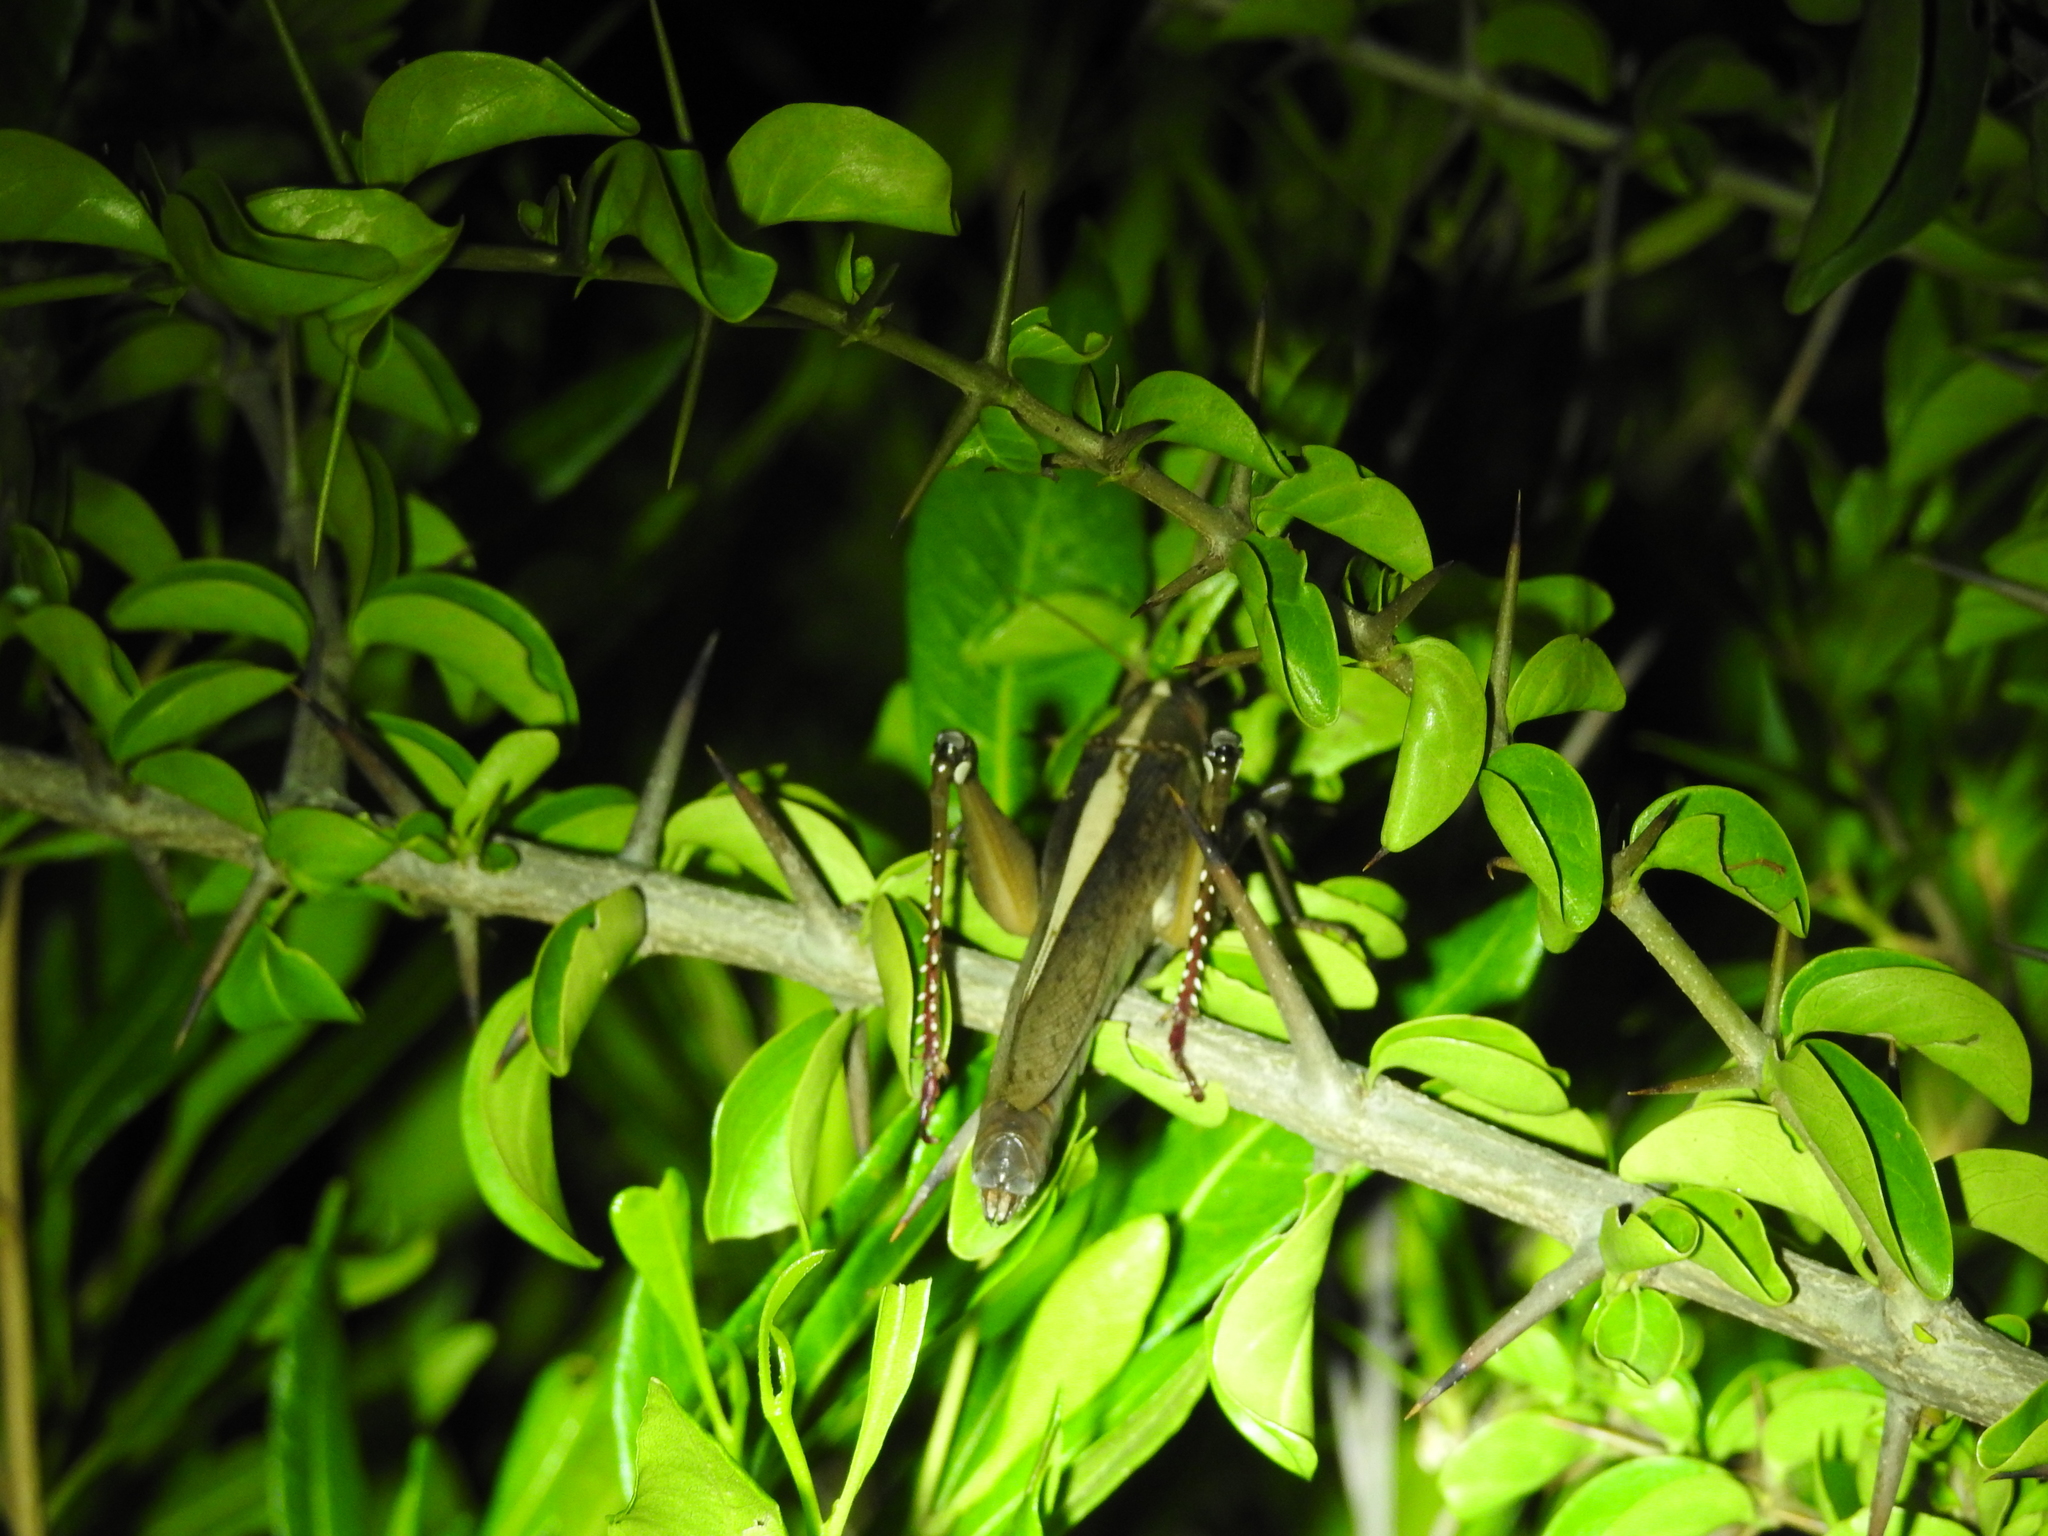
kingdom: Animalia
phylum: Arthropoda
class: Insecta
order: Orthoptera
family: Acrididae
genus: Pachyacris
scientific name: Pachyacris violascens
